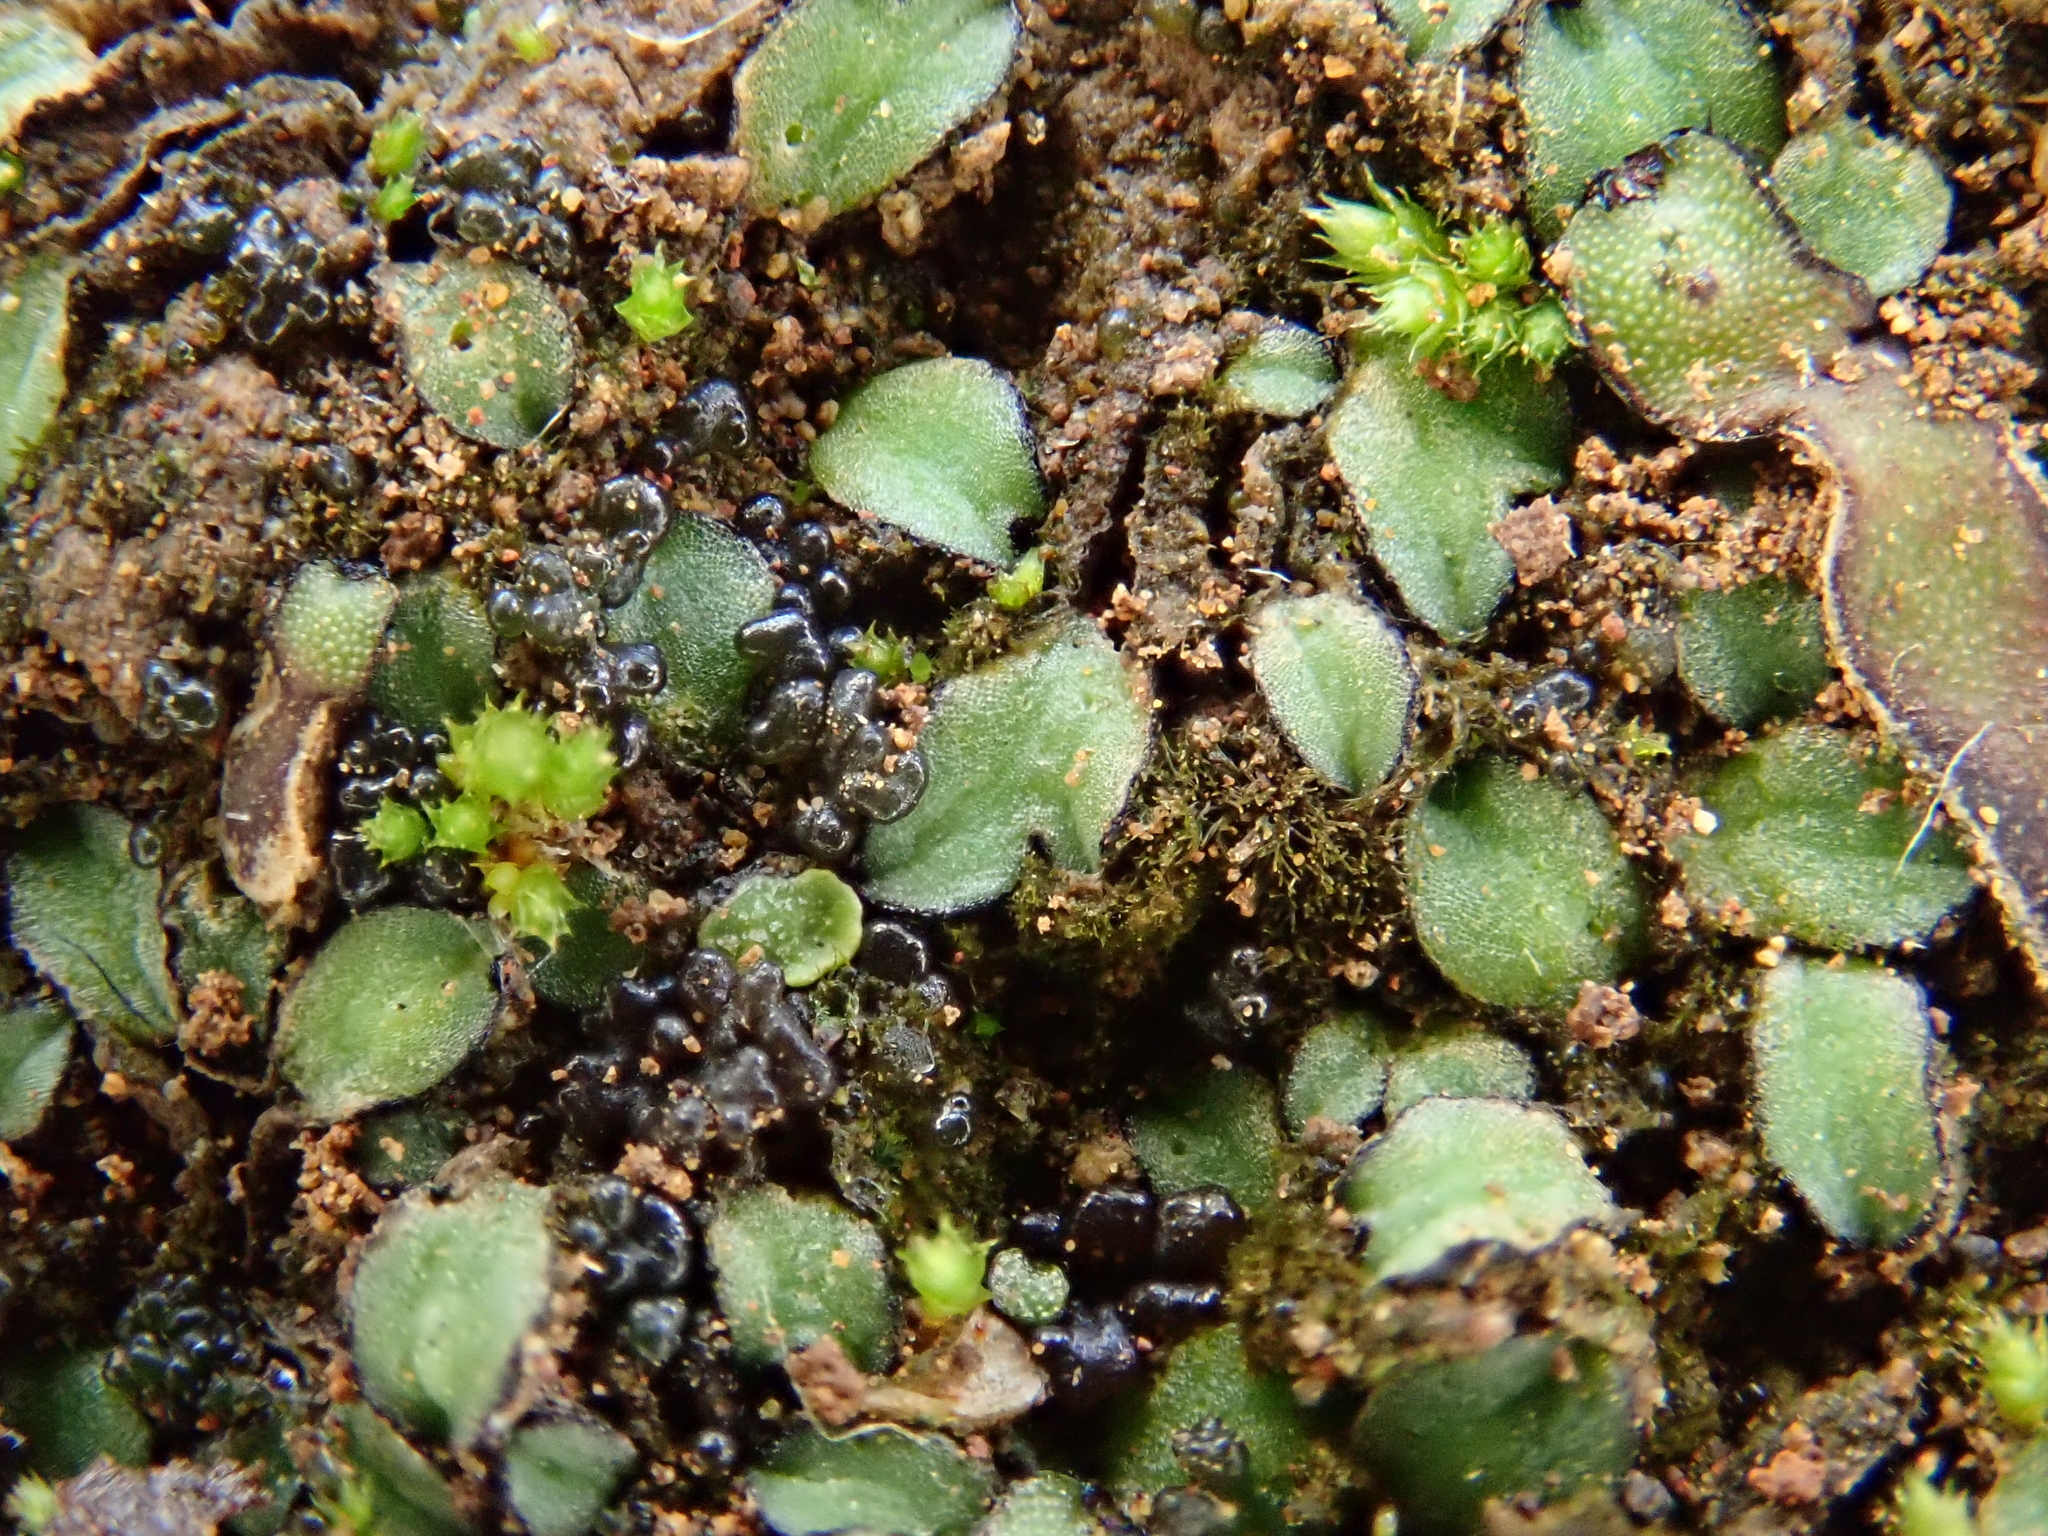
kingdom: Plantae
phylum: Marchantiophyta
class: Marchantiopsida
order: Marchantiales
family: Ricciaceae
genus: Riccia
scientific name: Riccia trabutiana
